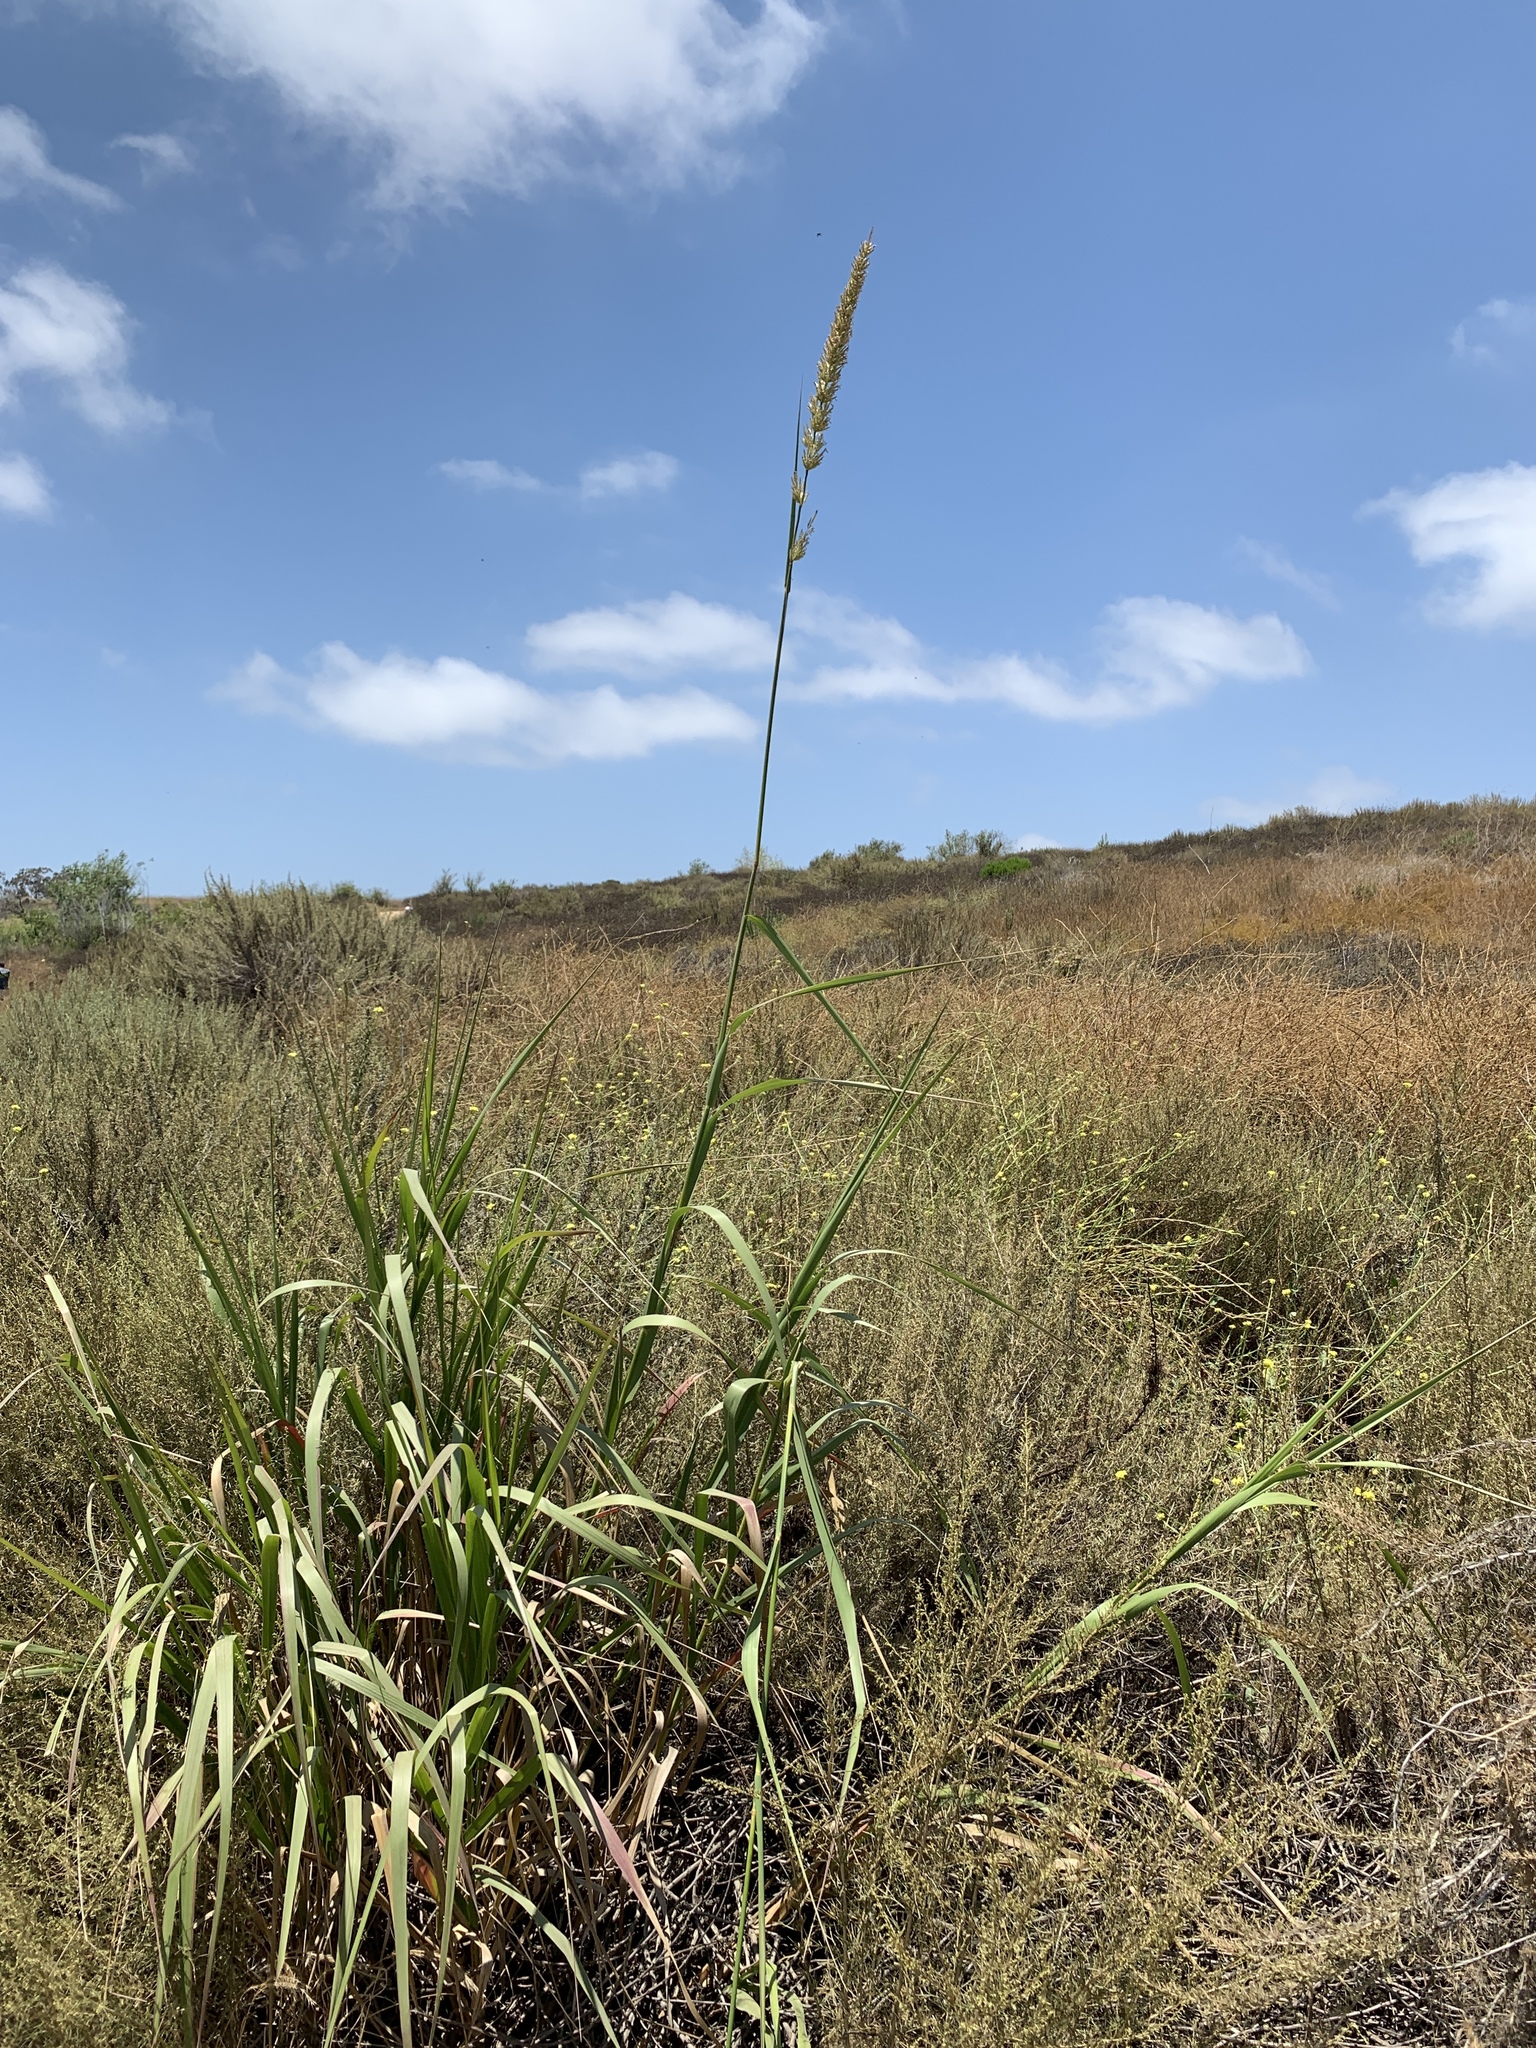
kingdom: Plantae
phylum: Tracheophyta
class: Liliopsida
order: Poales
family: Poaceae
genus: Leymus
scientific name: Leymus condensatus
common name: Giant wild rye
